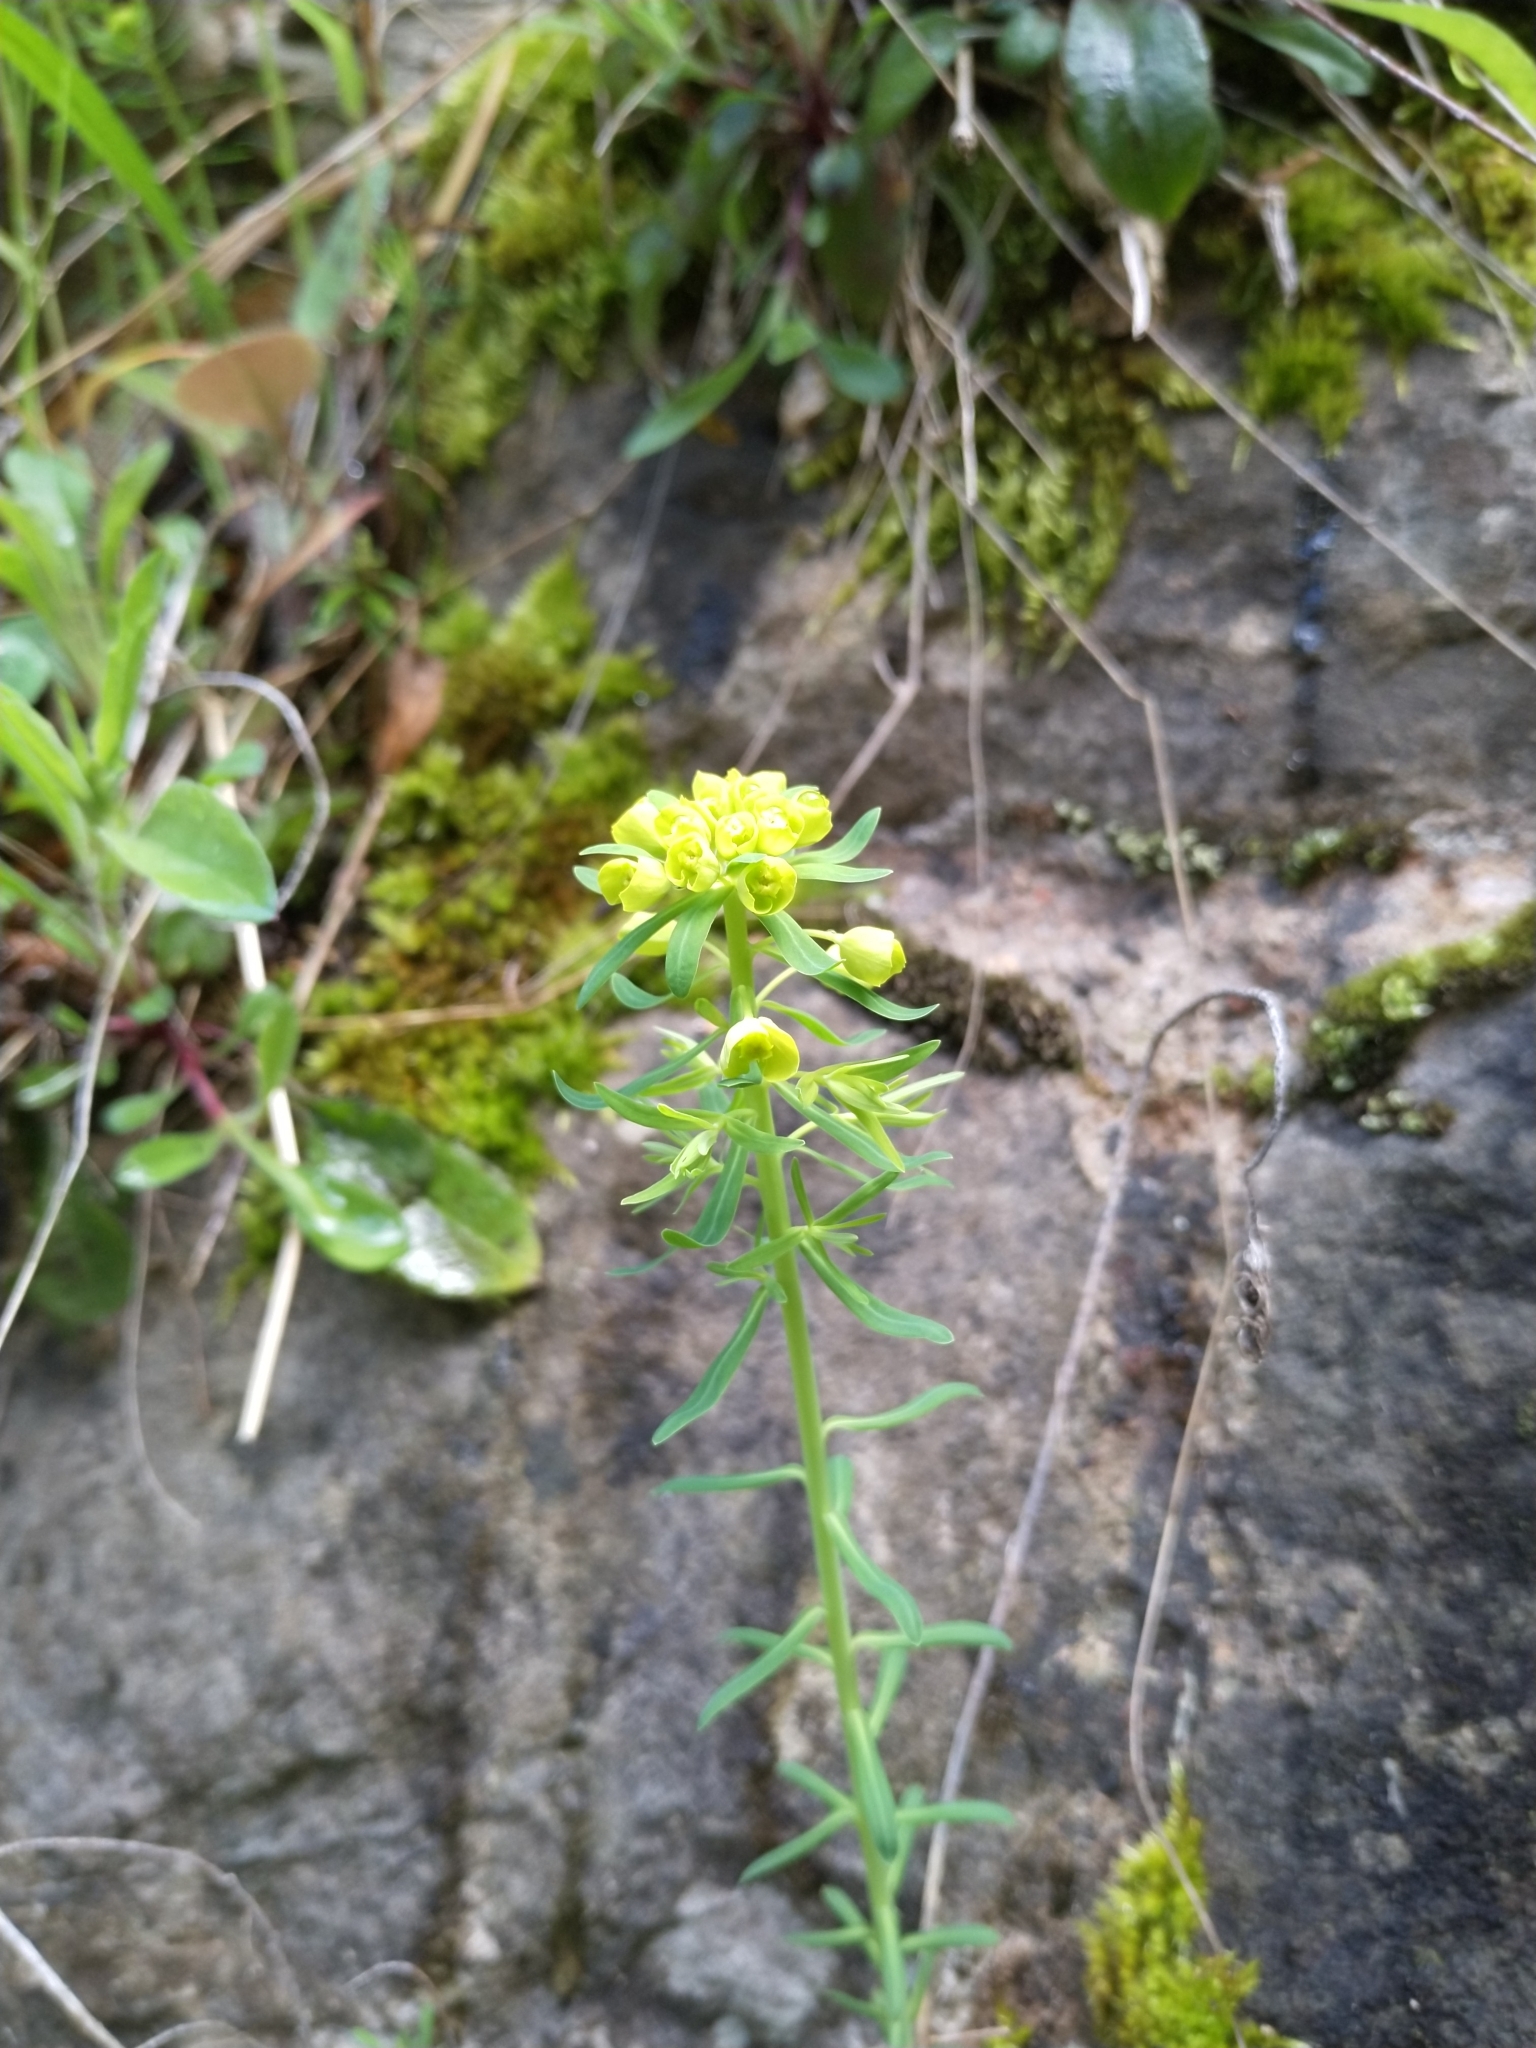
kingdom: Plantae
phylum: Tracheophyta
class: Magnoliopsida
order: Malpighiales
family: Euphorbiaceae
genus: Euphorbia
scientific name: Euphorbia cyparissias
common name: Cypress spurge
